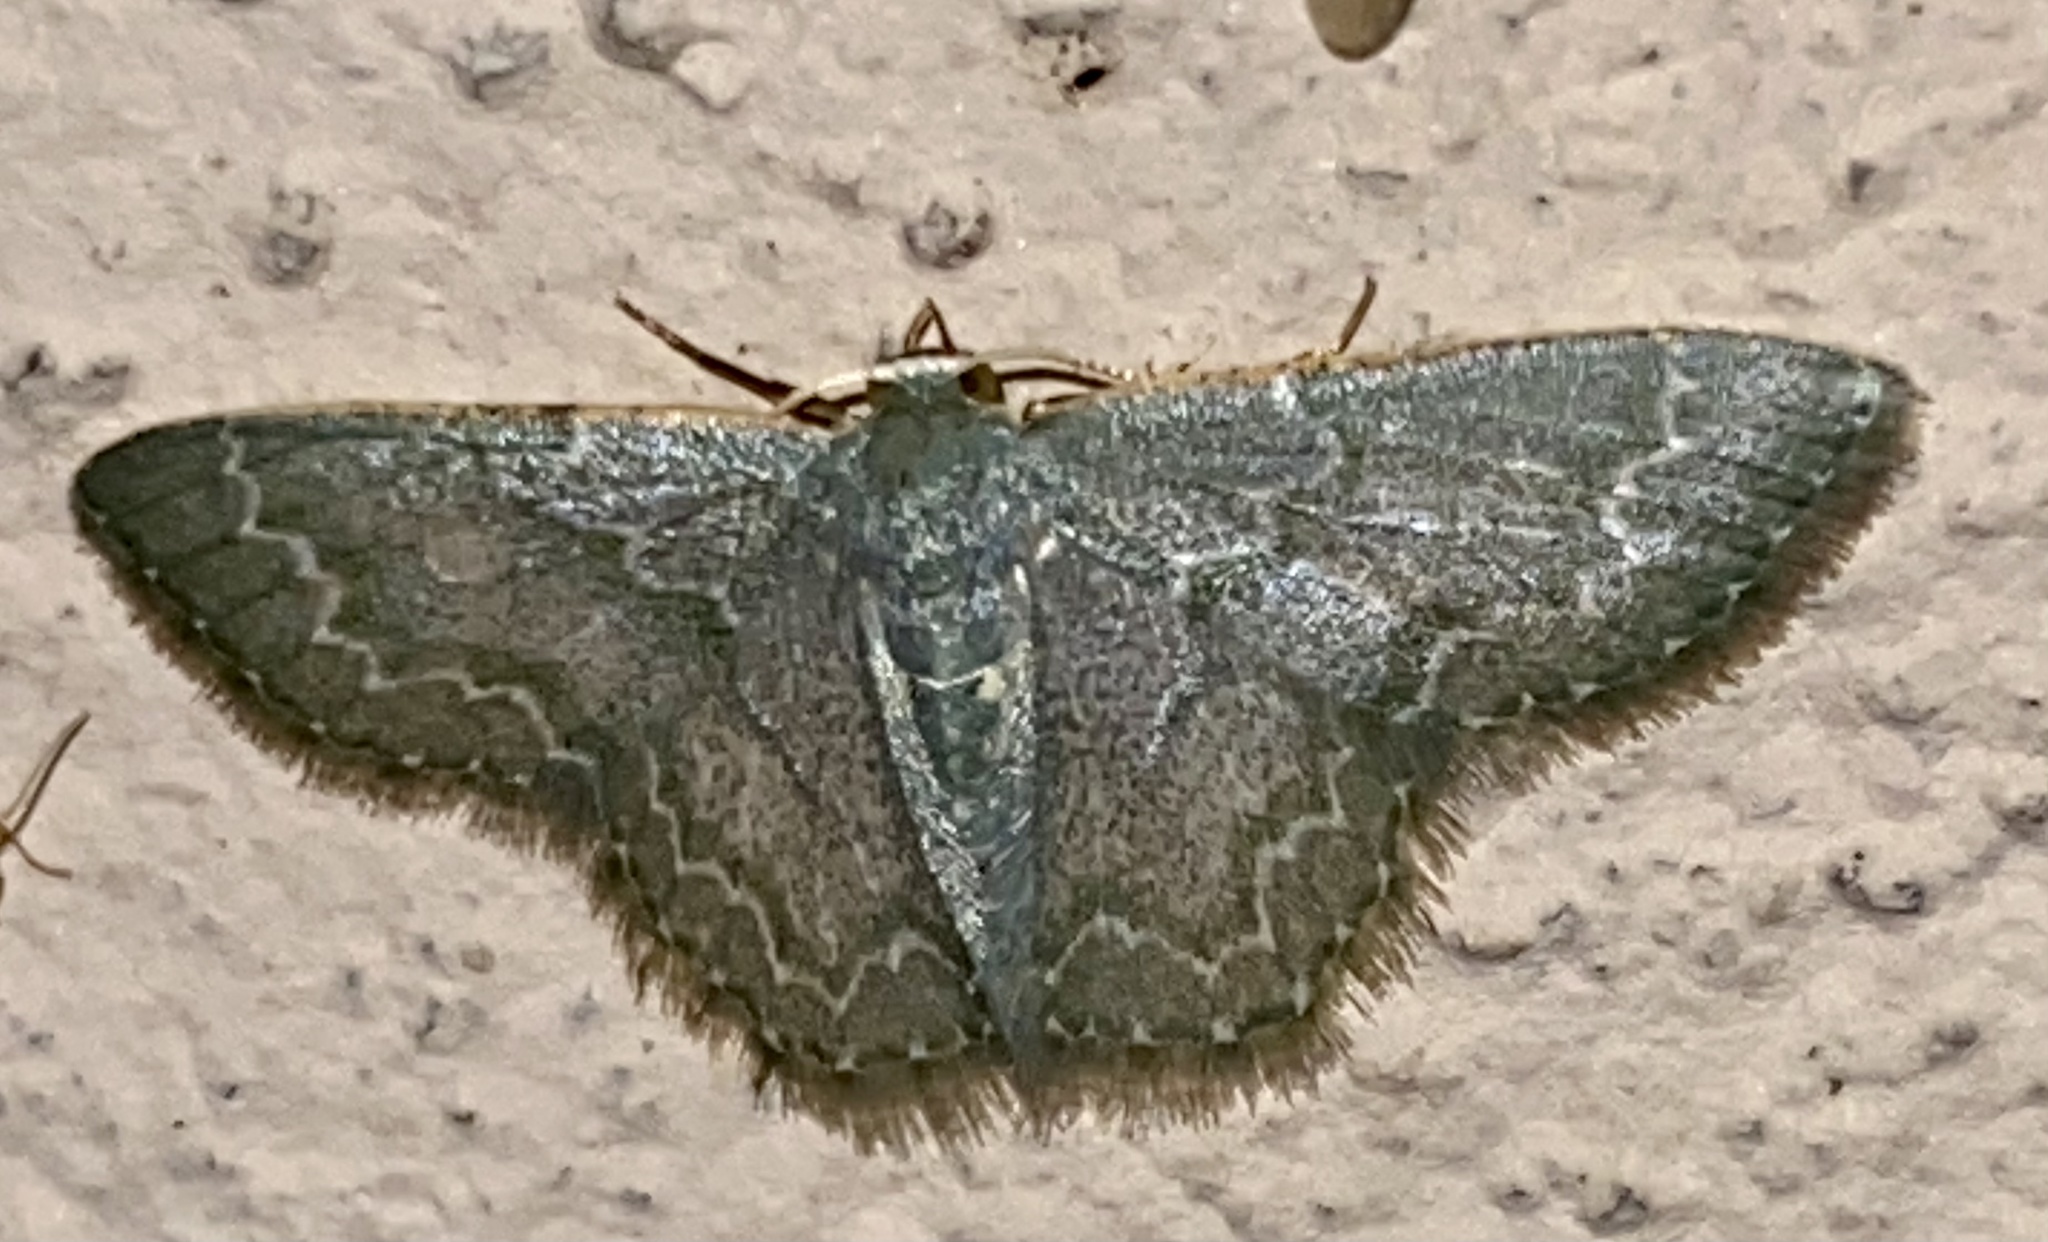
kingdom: Animalia
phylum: Arthropoda
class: Insecta
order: Lepidoptera
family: Geometridae
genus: Chloropteryx
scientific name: Chloropteryx languescens
